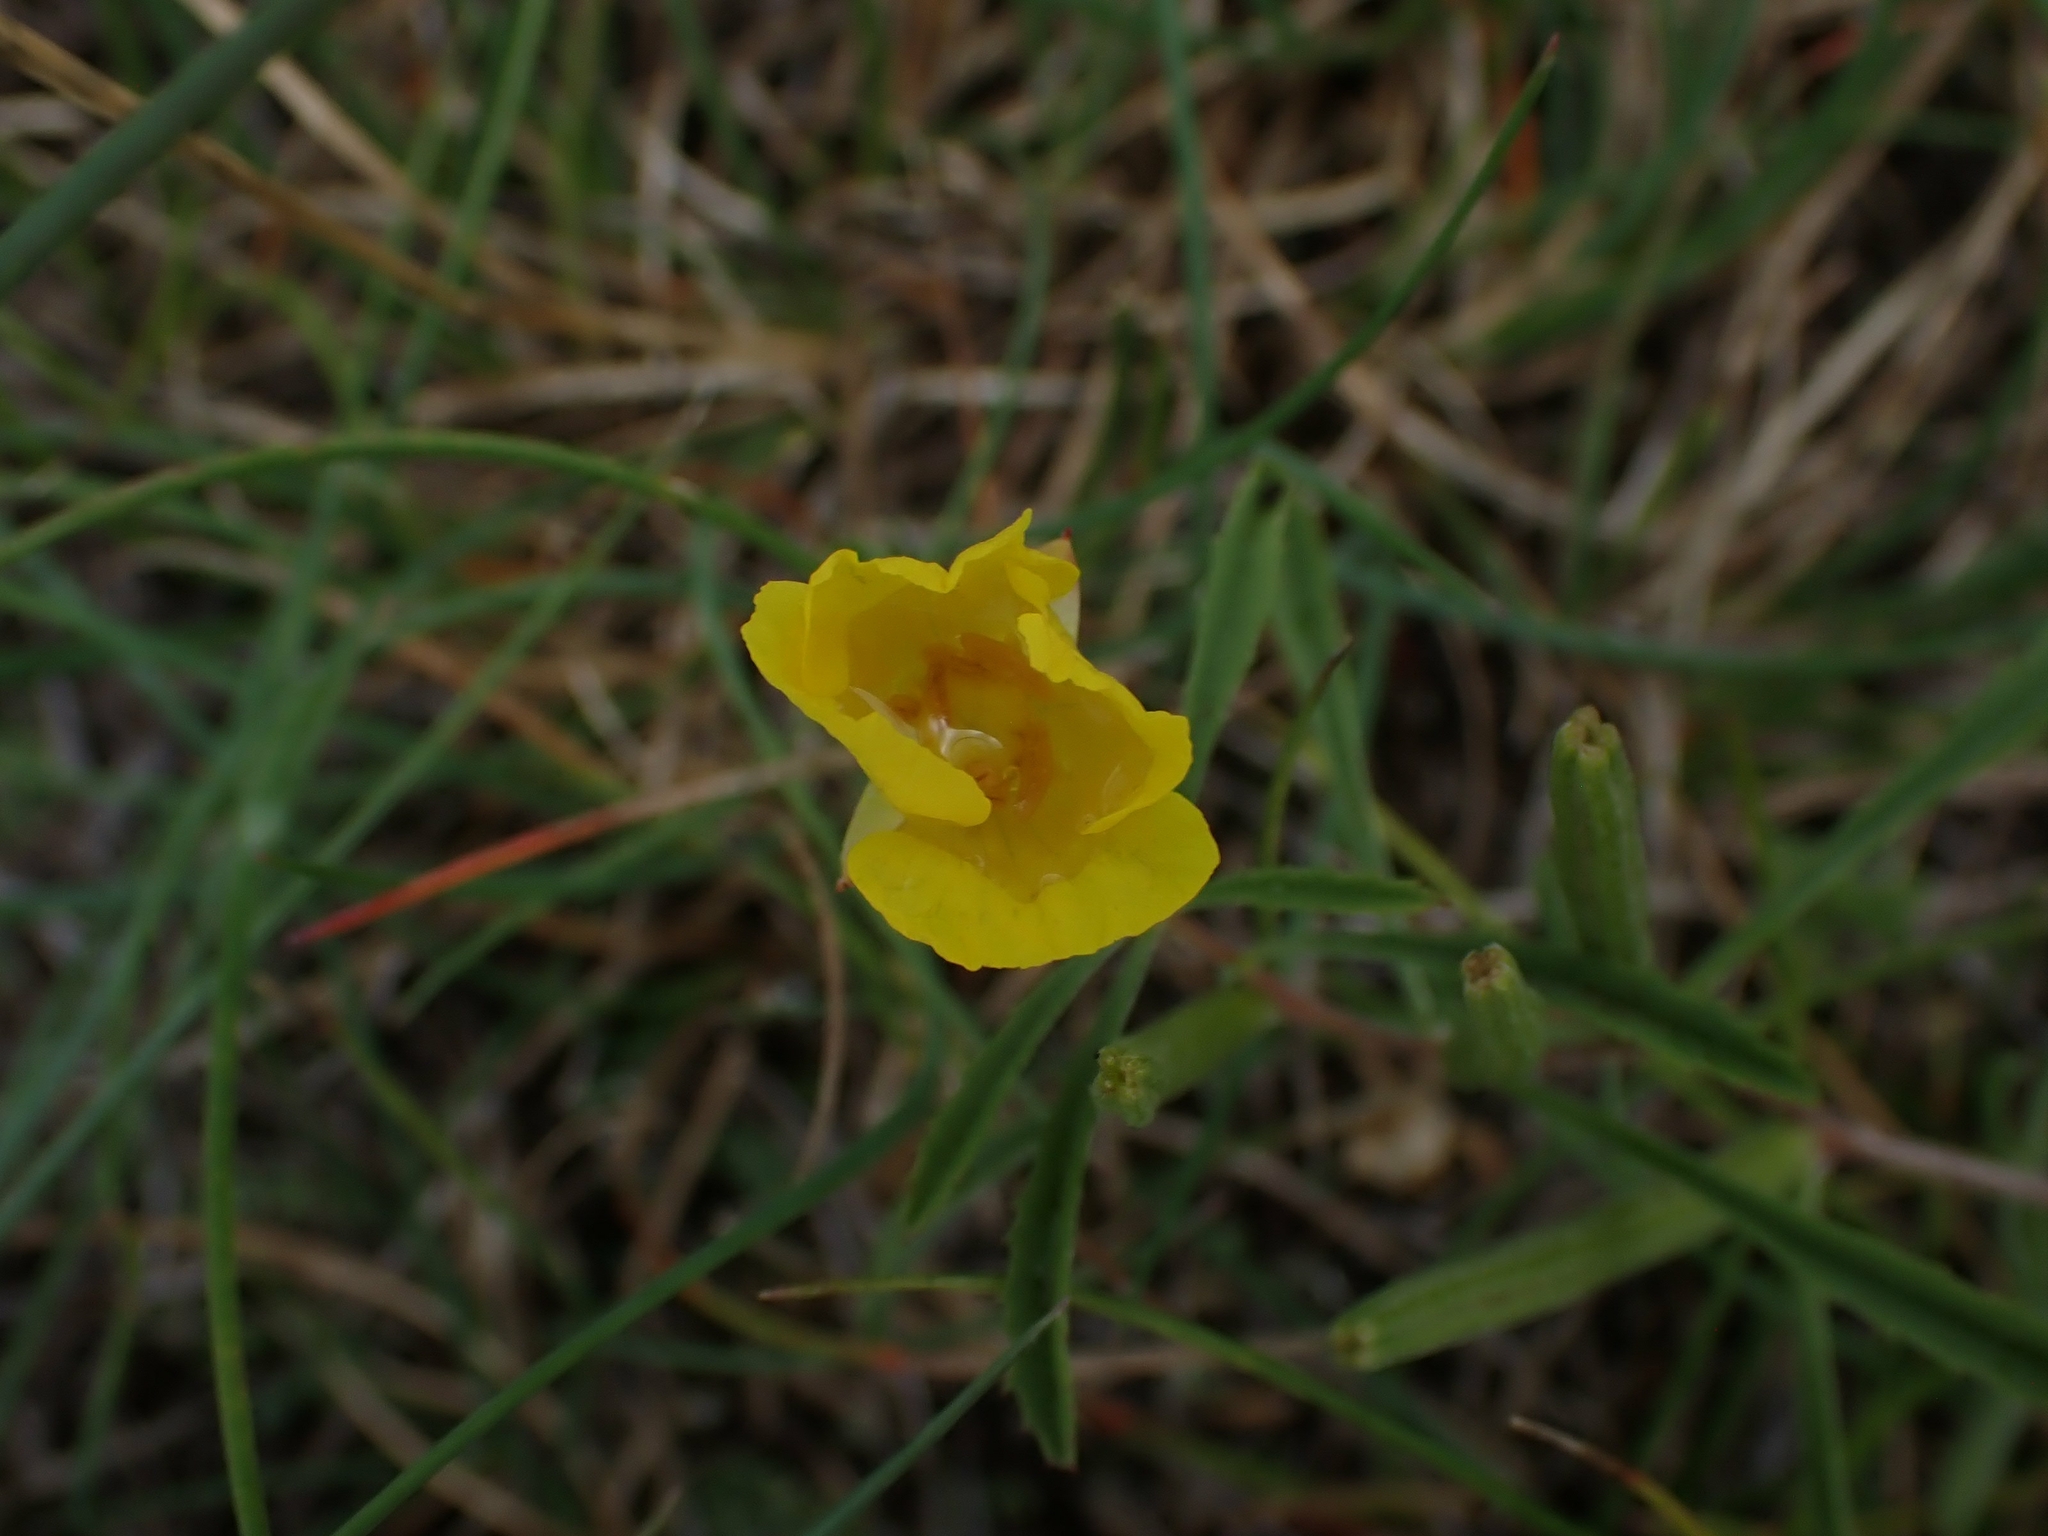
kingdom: Plantae
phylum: Tracheophyta
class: Magnoliopsida
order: Myrtales
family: Onagraceae
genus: Oenothera
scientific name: Oenothera serrulata
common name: Half-shrub calylophus
